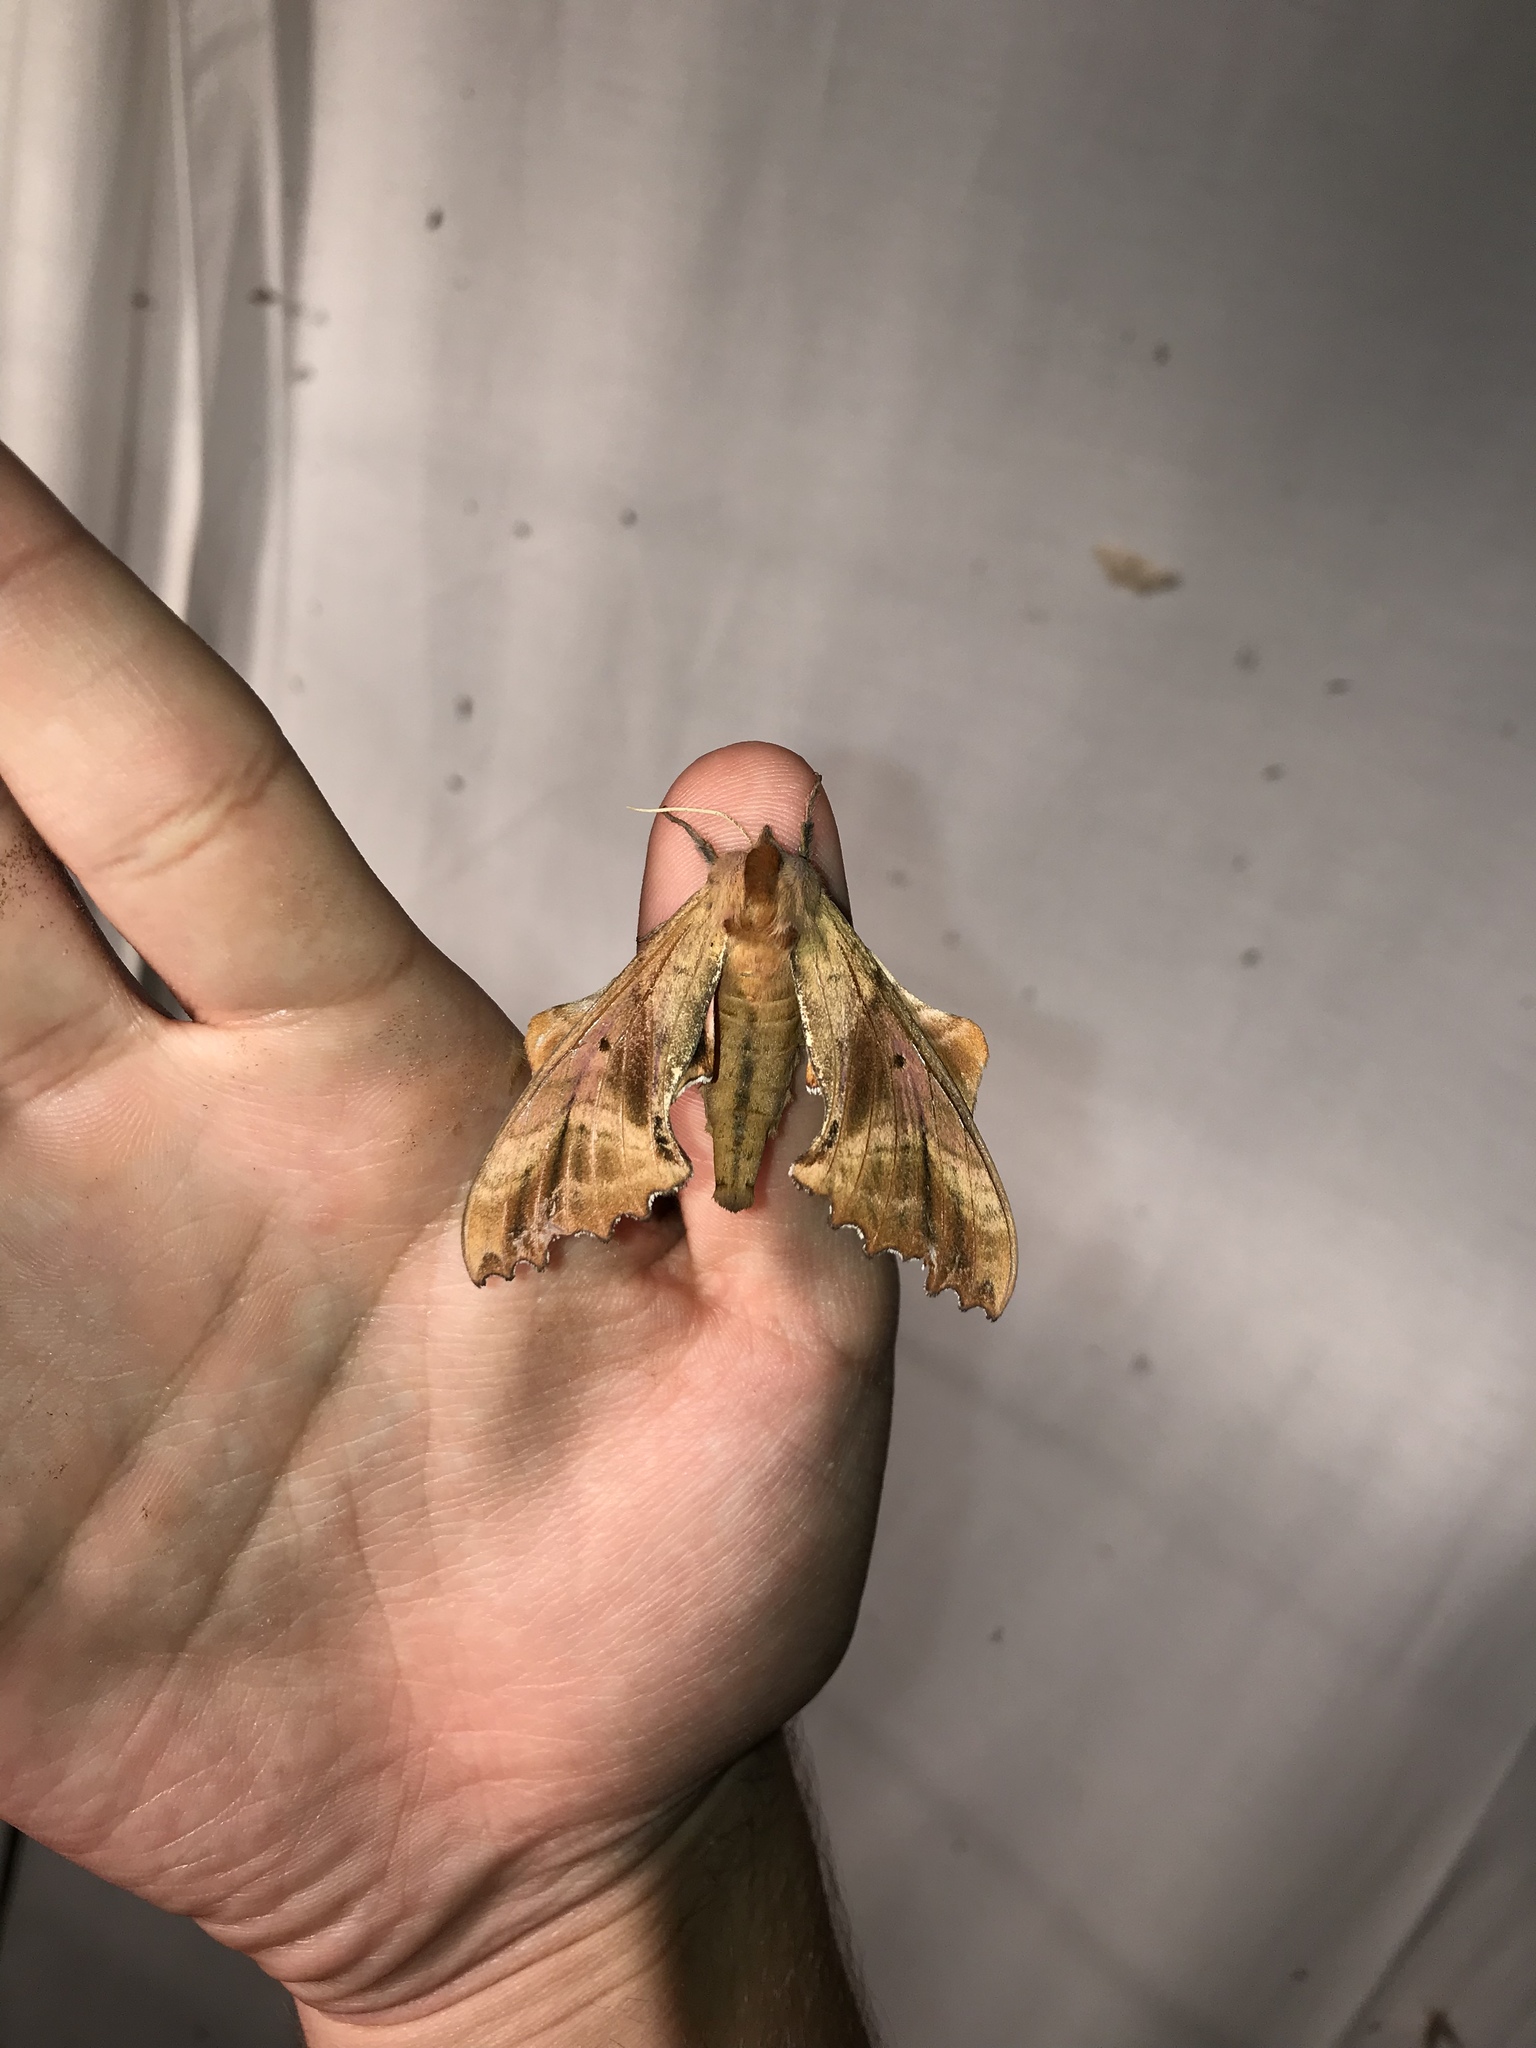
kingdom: Animalia
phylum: Arthropoda
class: Insecta
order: Lepidoptera
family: Sphingidae
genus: Paonias
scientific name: Paonias excaecata
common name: Blind-eyed sphinx
